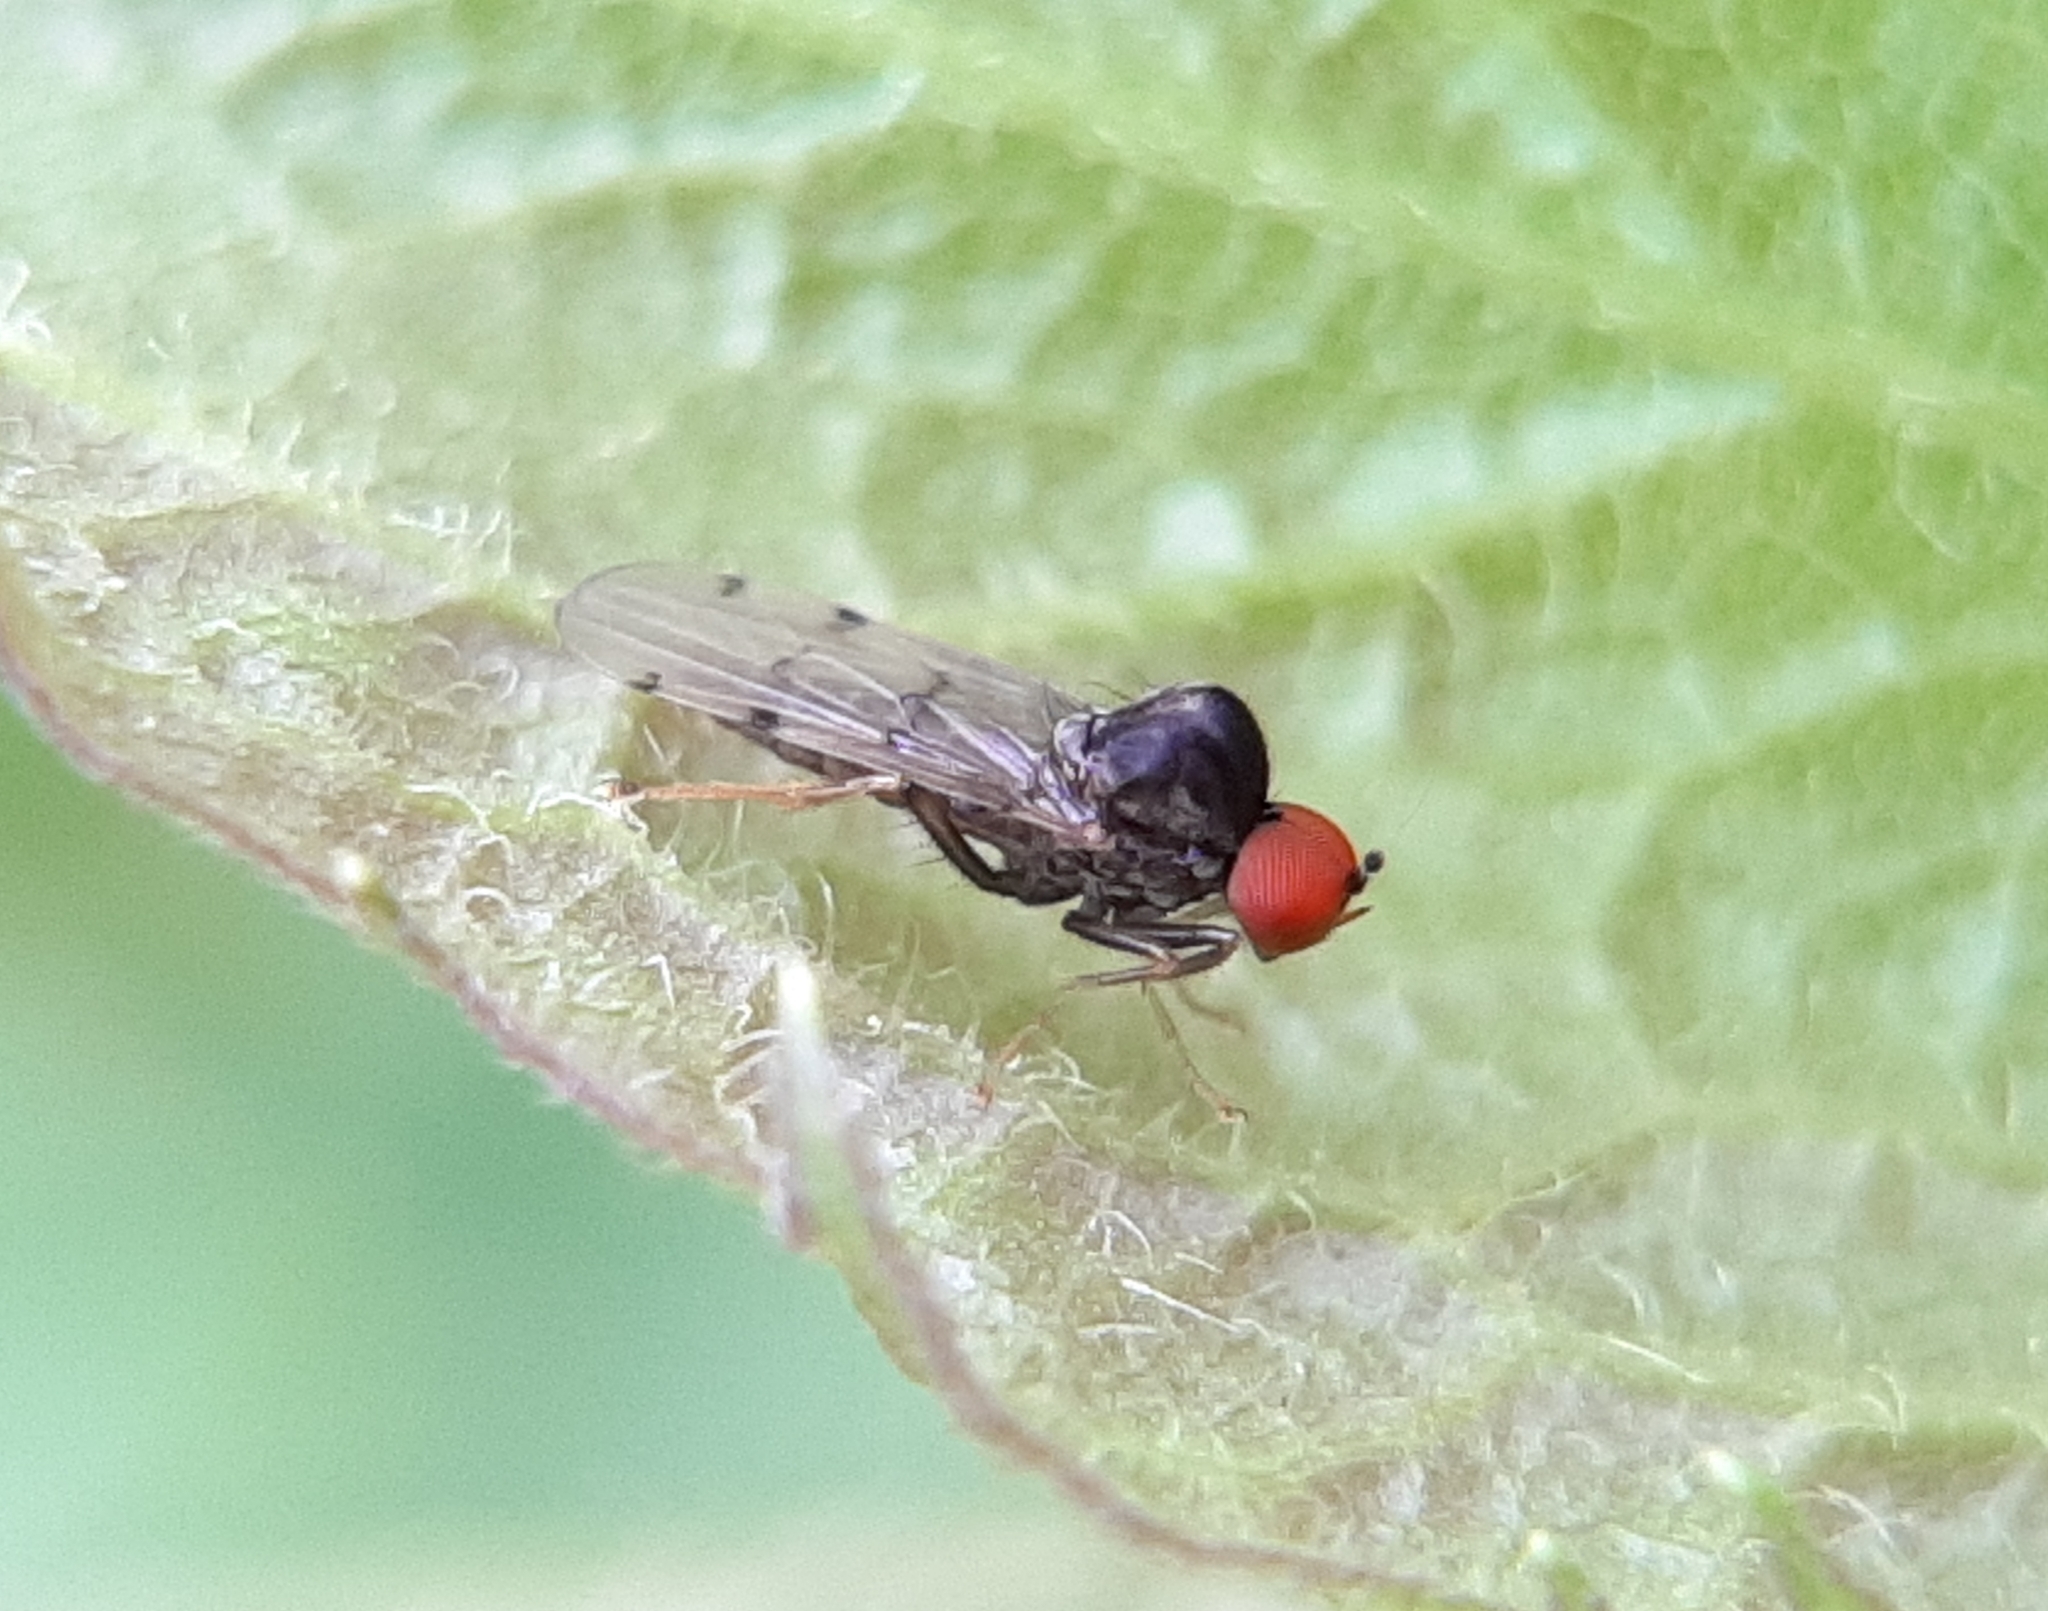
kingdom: Animalia
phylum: Arthropoda
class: Insecta
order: Diptera
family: Hybotidae
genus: Syneches
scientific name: Syneches simplex
